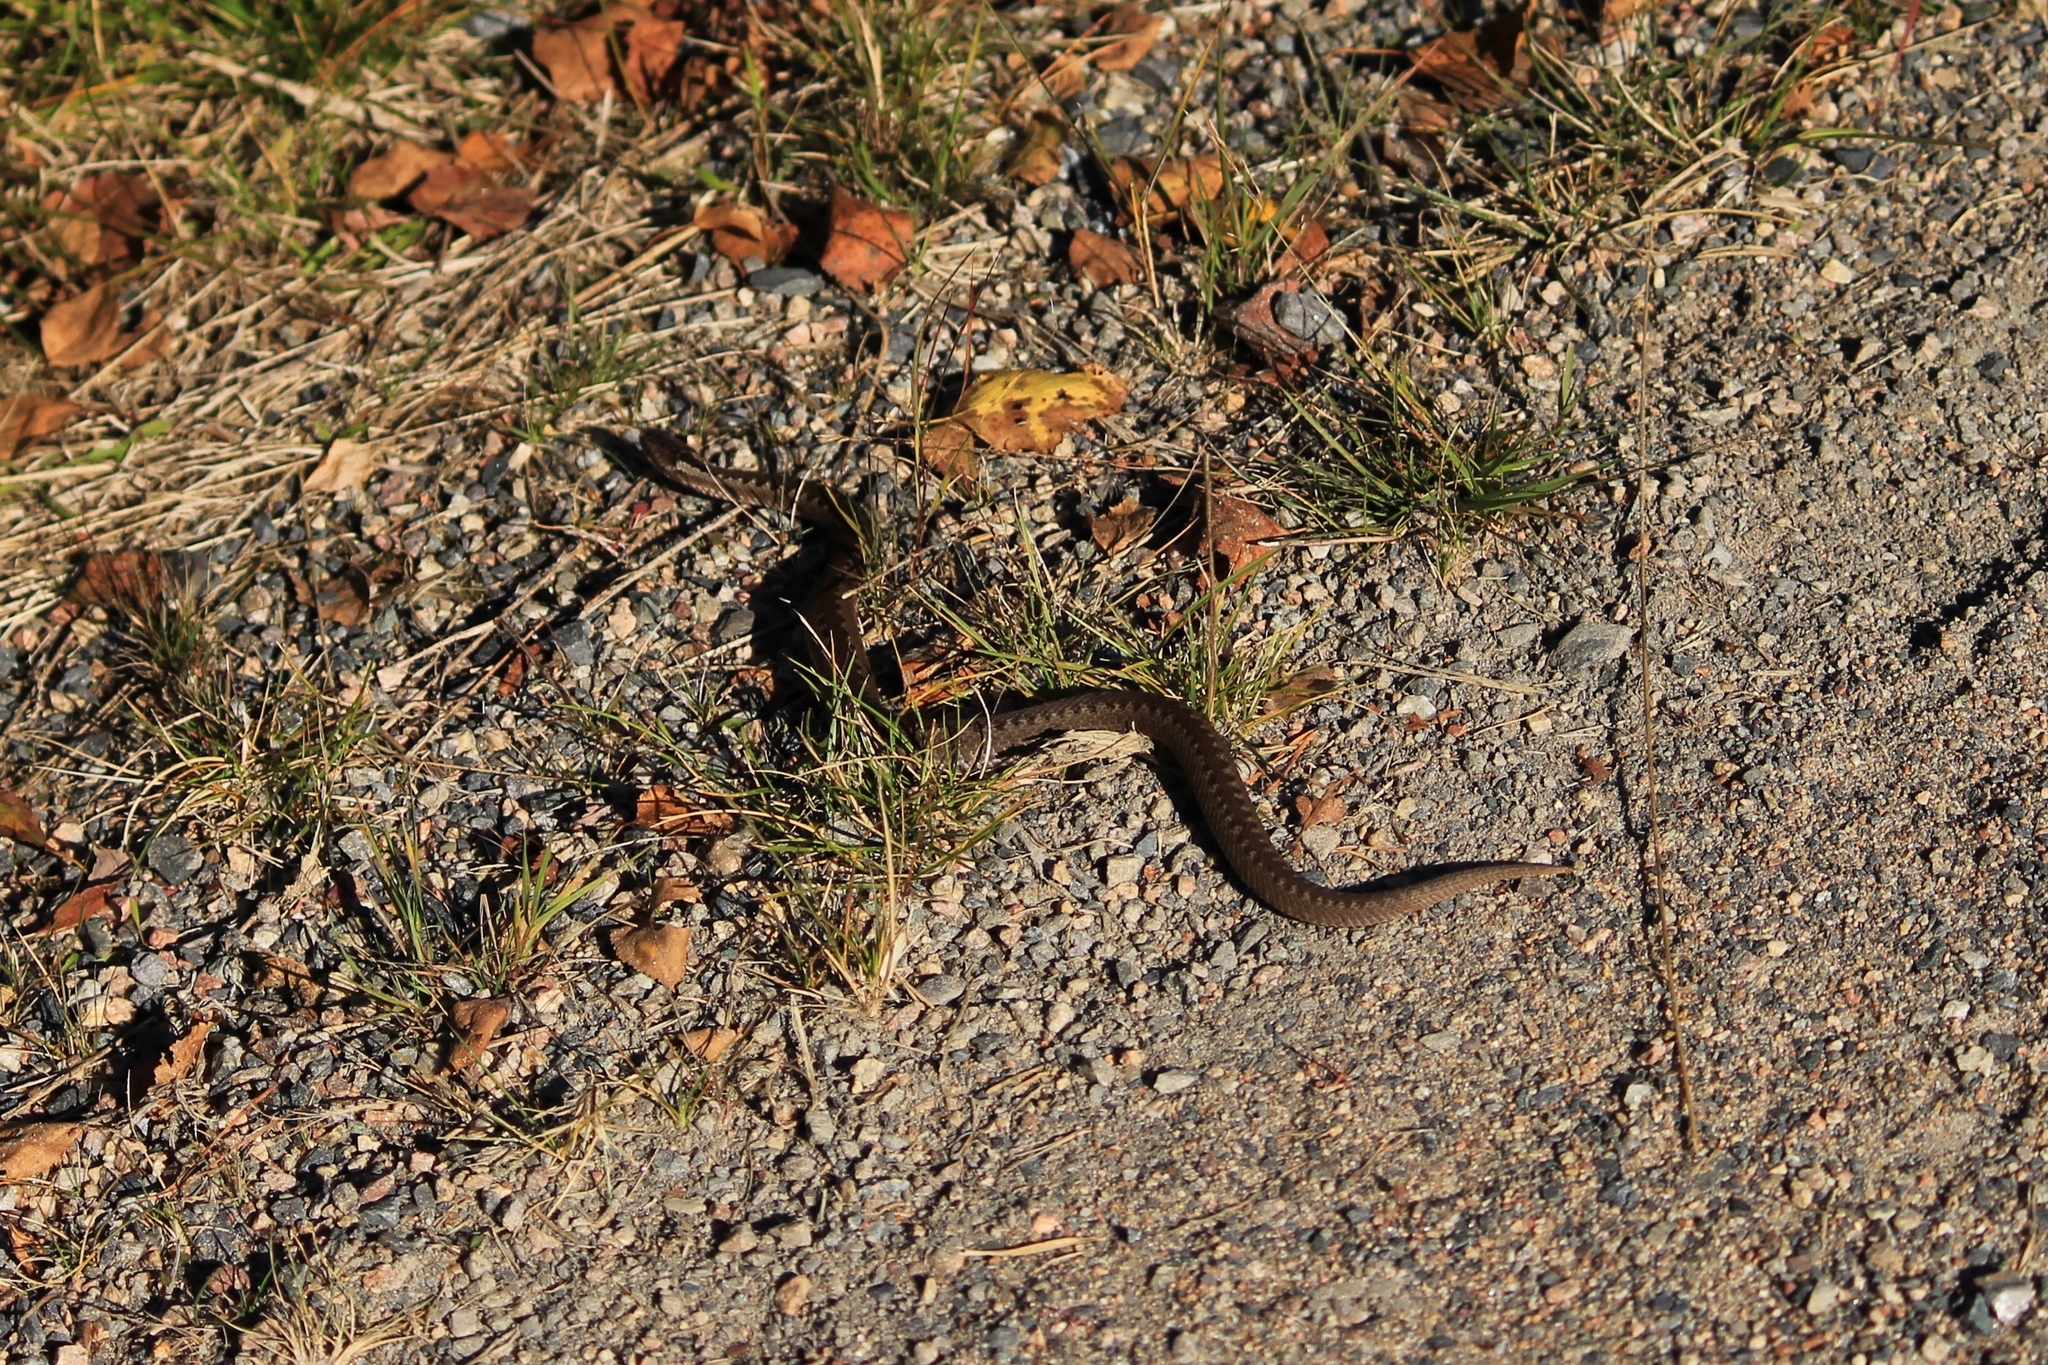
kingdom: Animalia
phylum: Chordata
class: Squamata
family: Viperidae
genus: Vipera
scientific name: Vipera berus
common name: Adder
